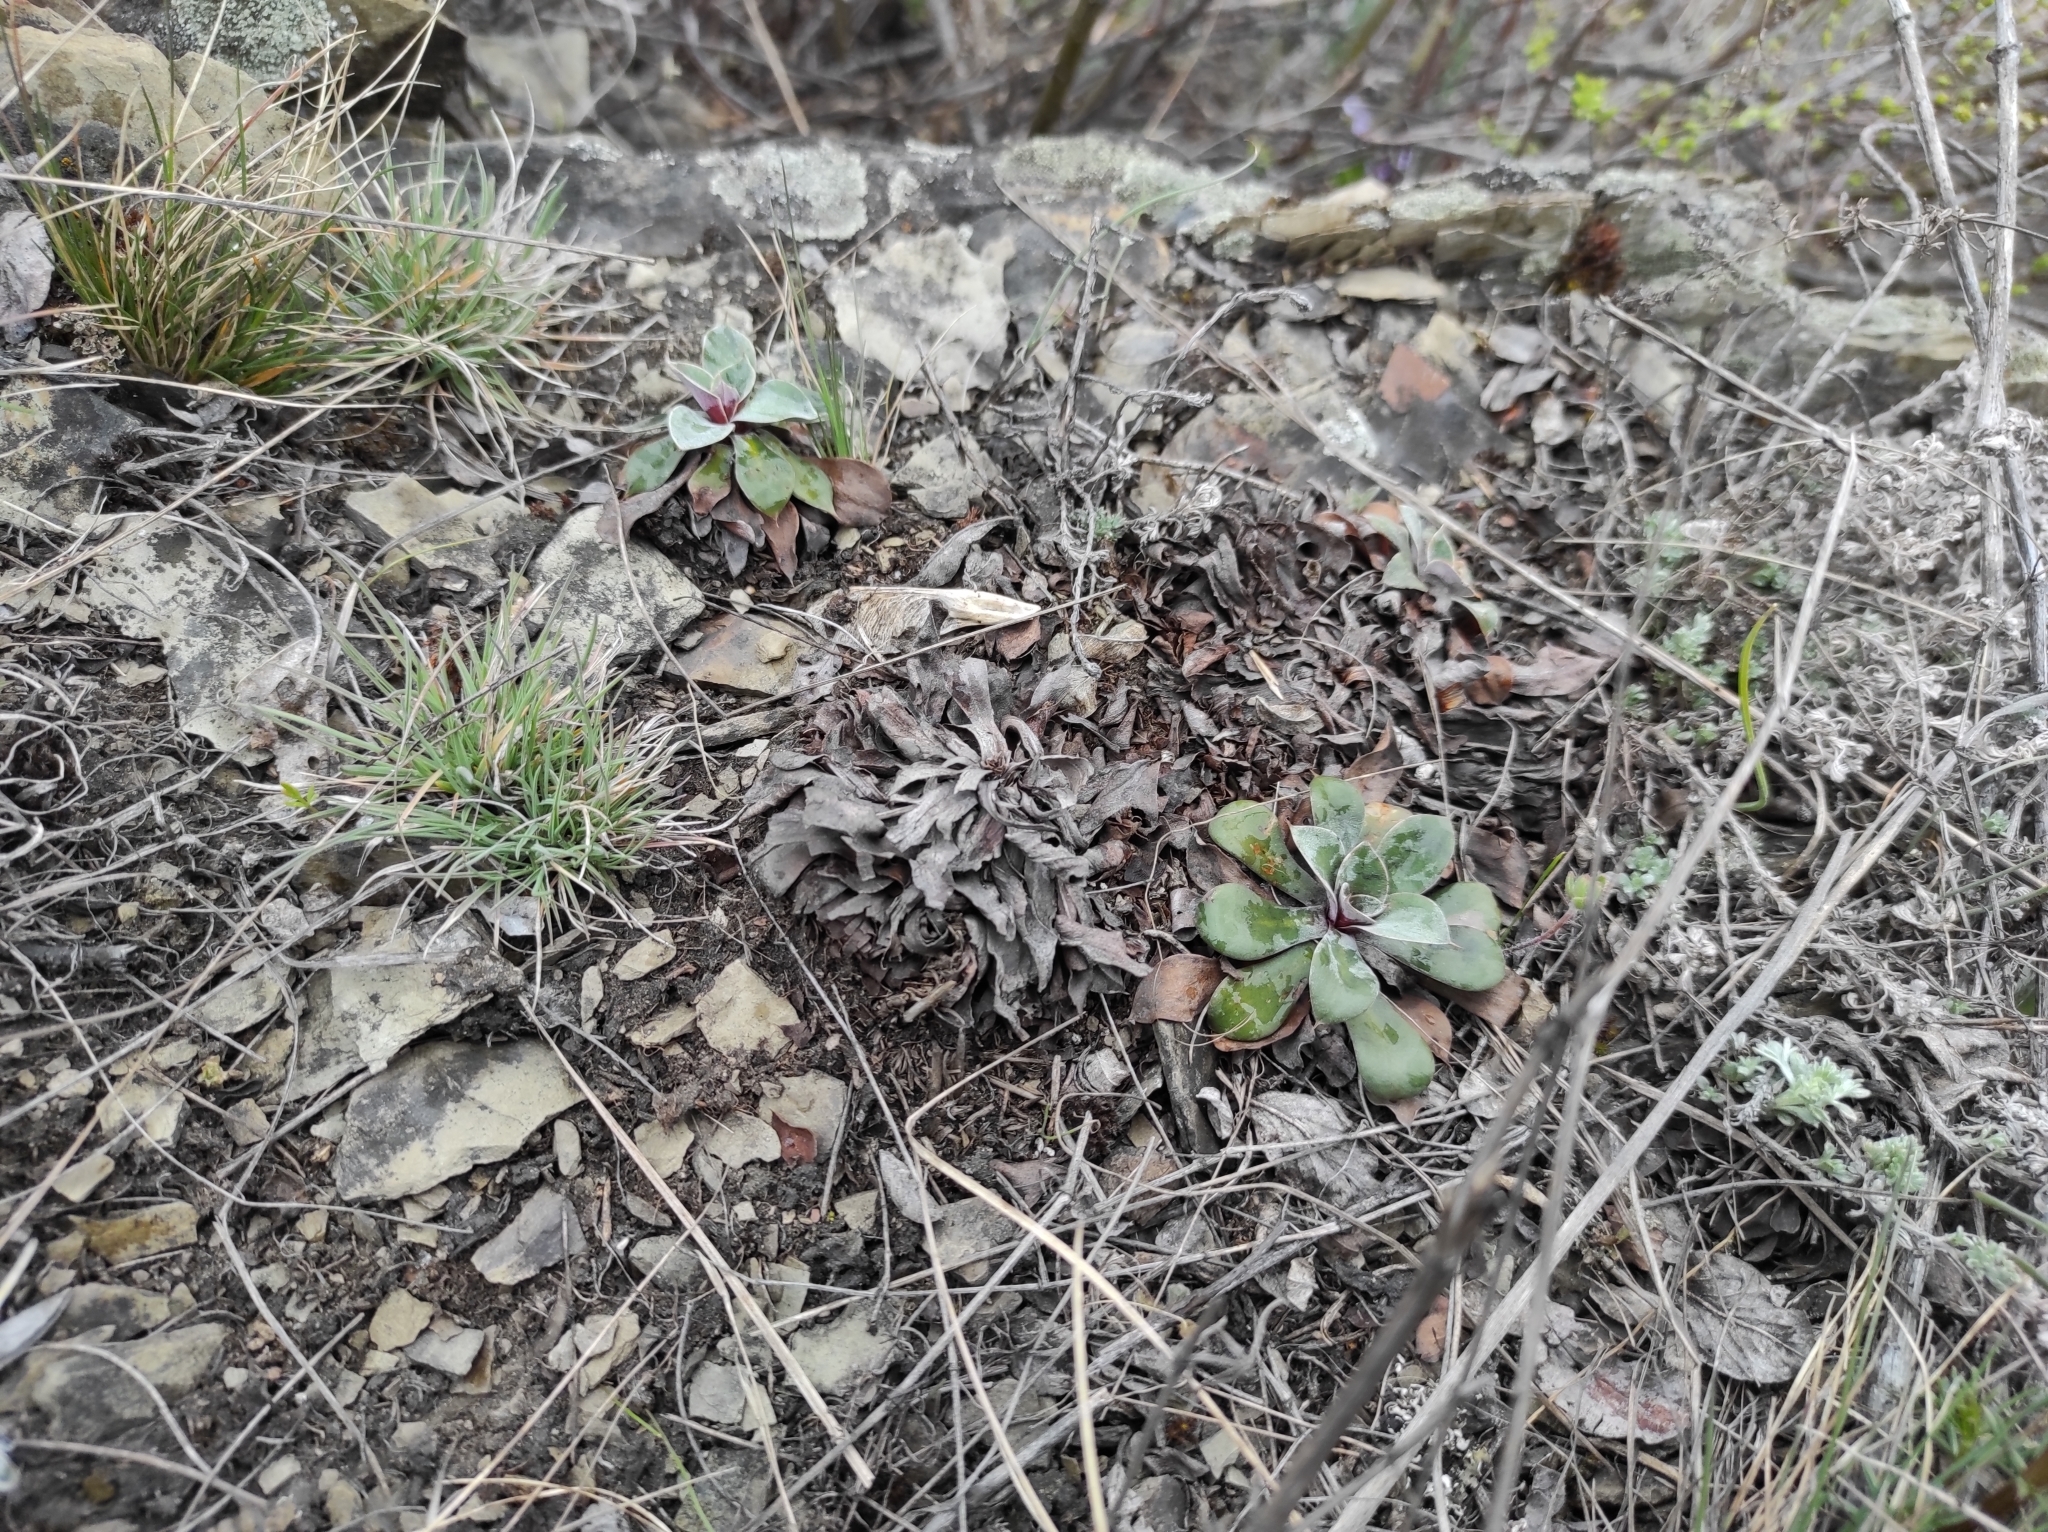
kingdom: Plantae
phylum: Tracheophyta
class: Magnoliopsida
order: Caryophyllales
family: Plumbaginaceae
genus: Goniolimon
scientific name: Goniolimon speciosum
